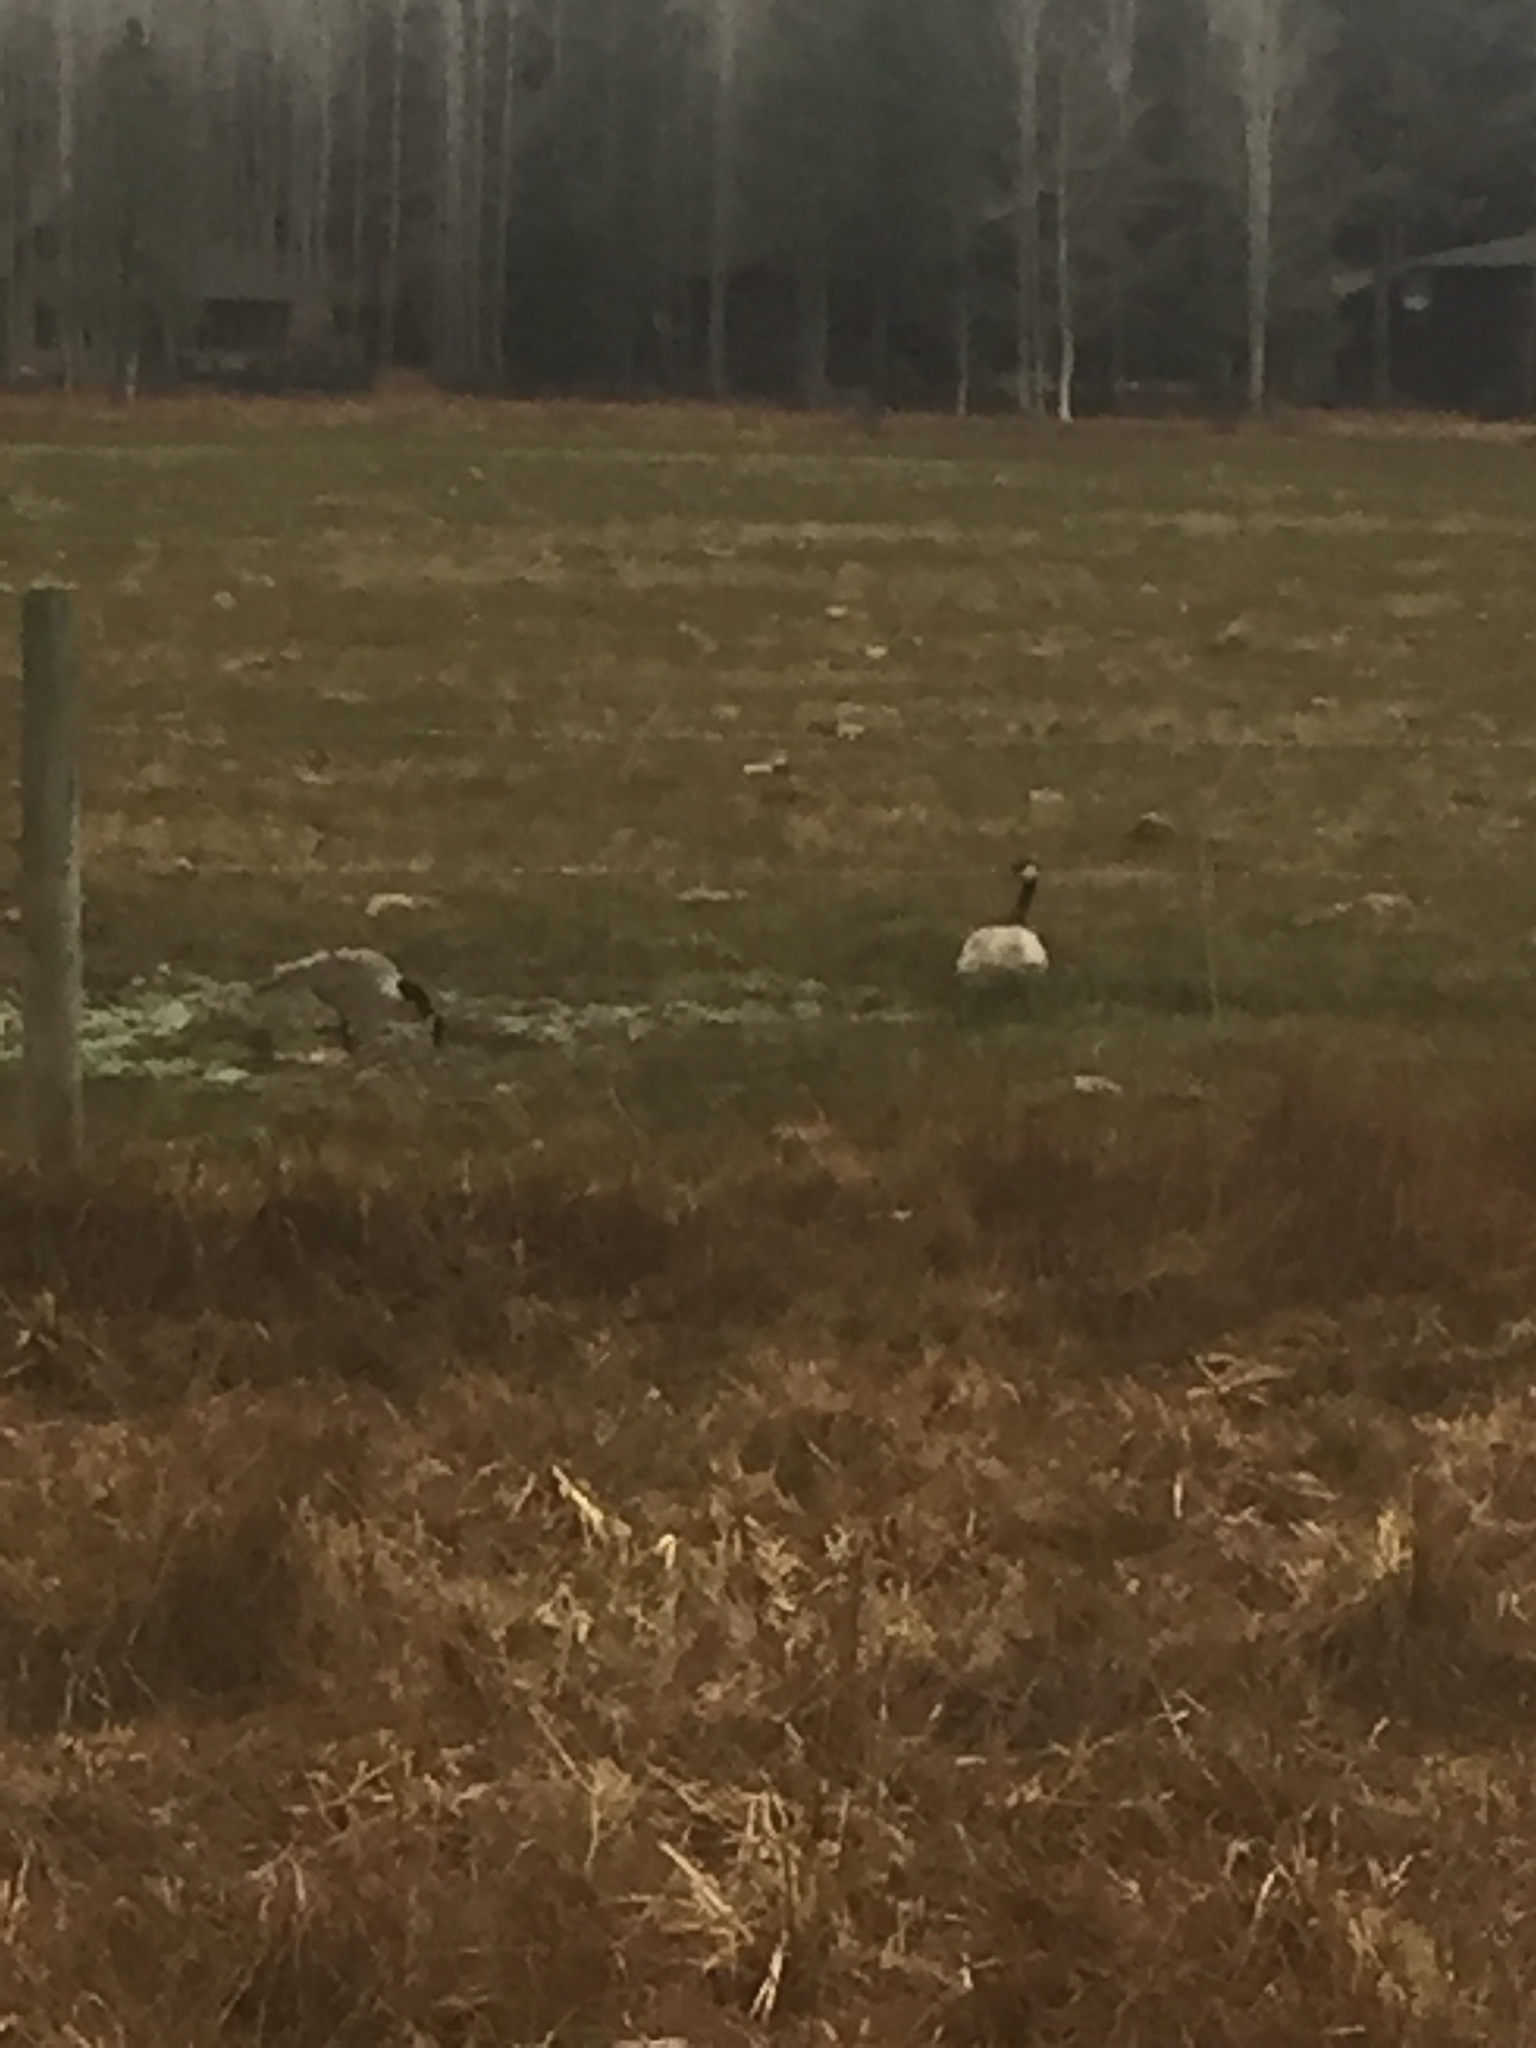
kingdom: Animalia
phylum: Chordata
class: Aves
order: Anseriformes
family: Anatidae
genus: Branta
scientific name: Branta canadensis
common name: Canada goose
